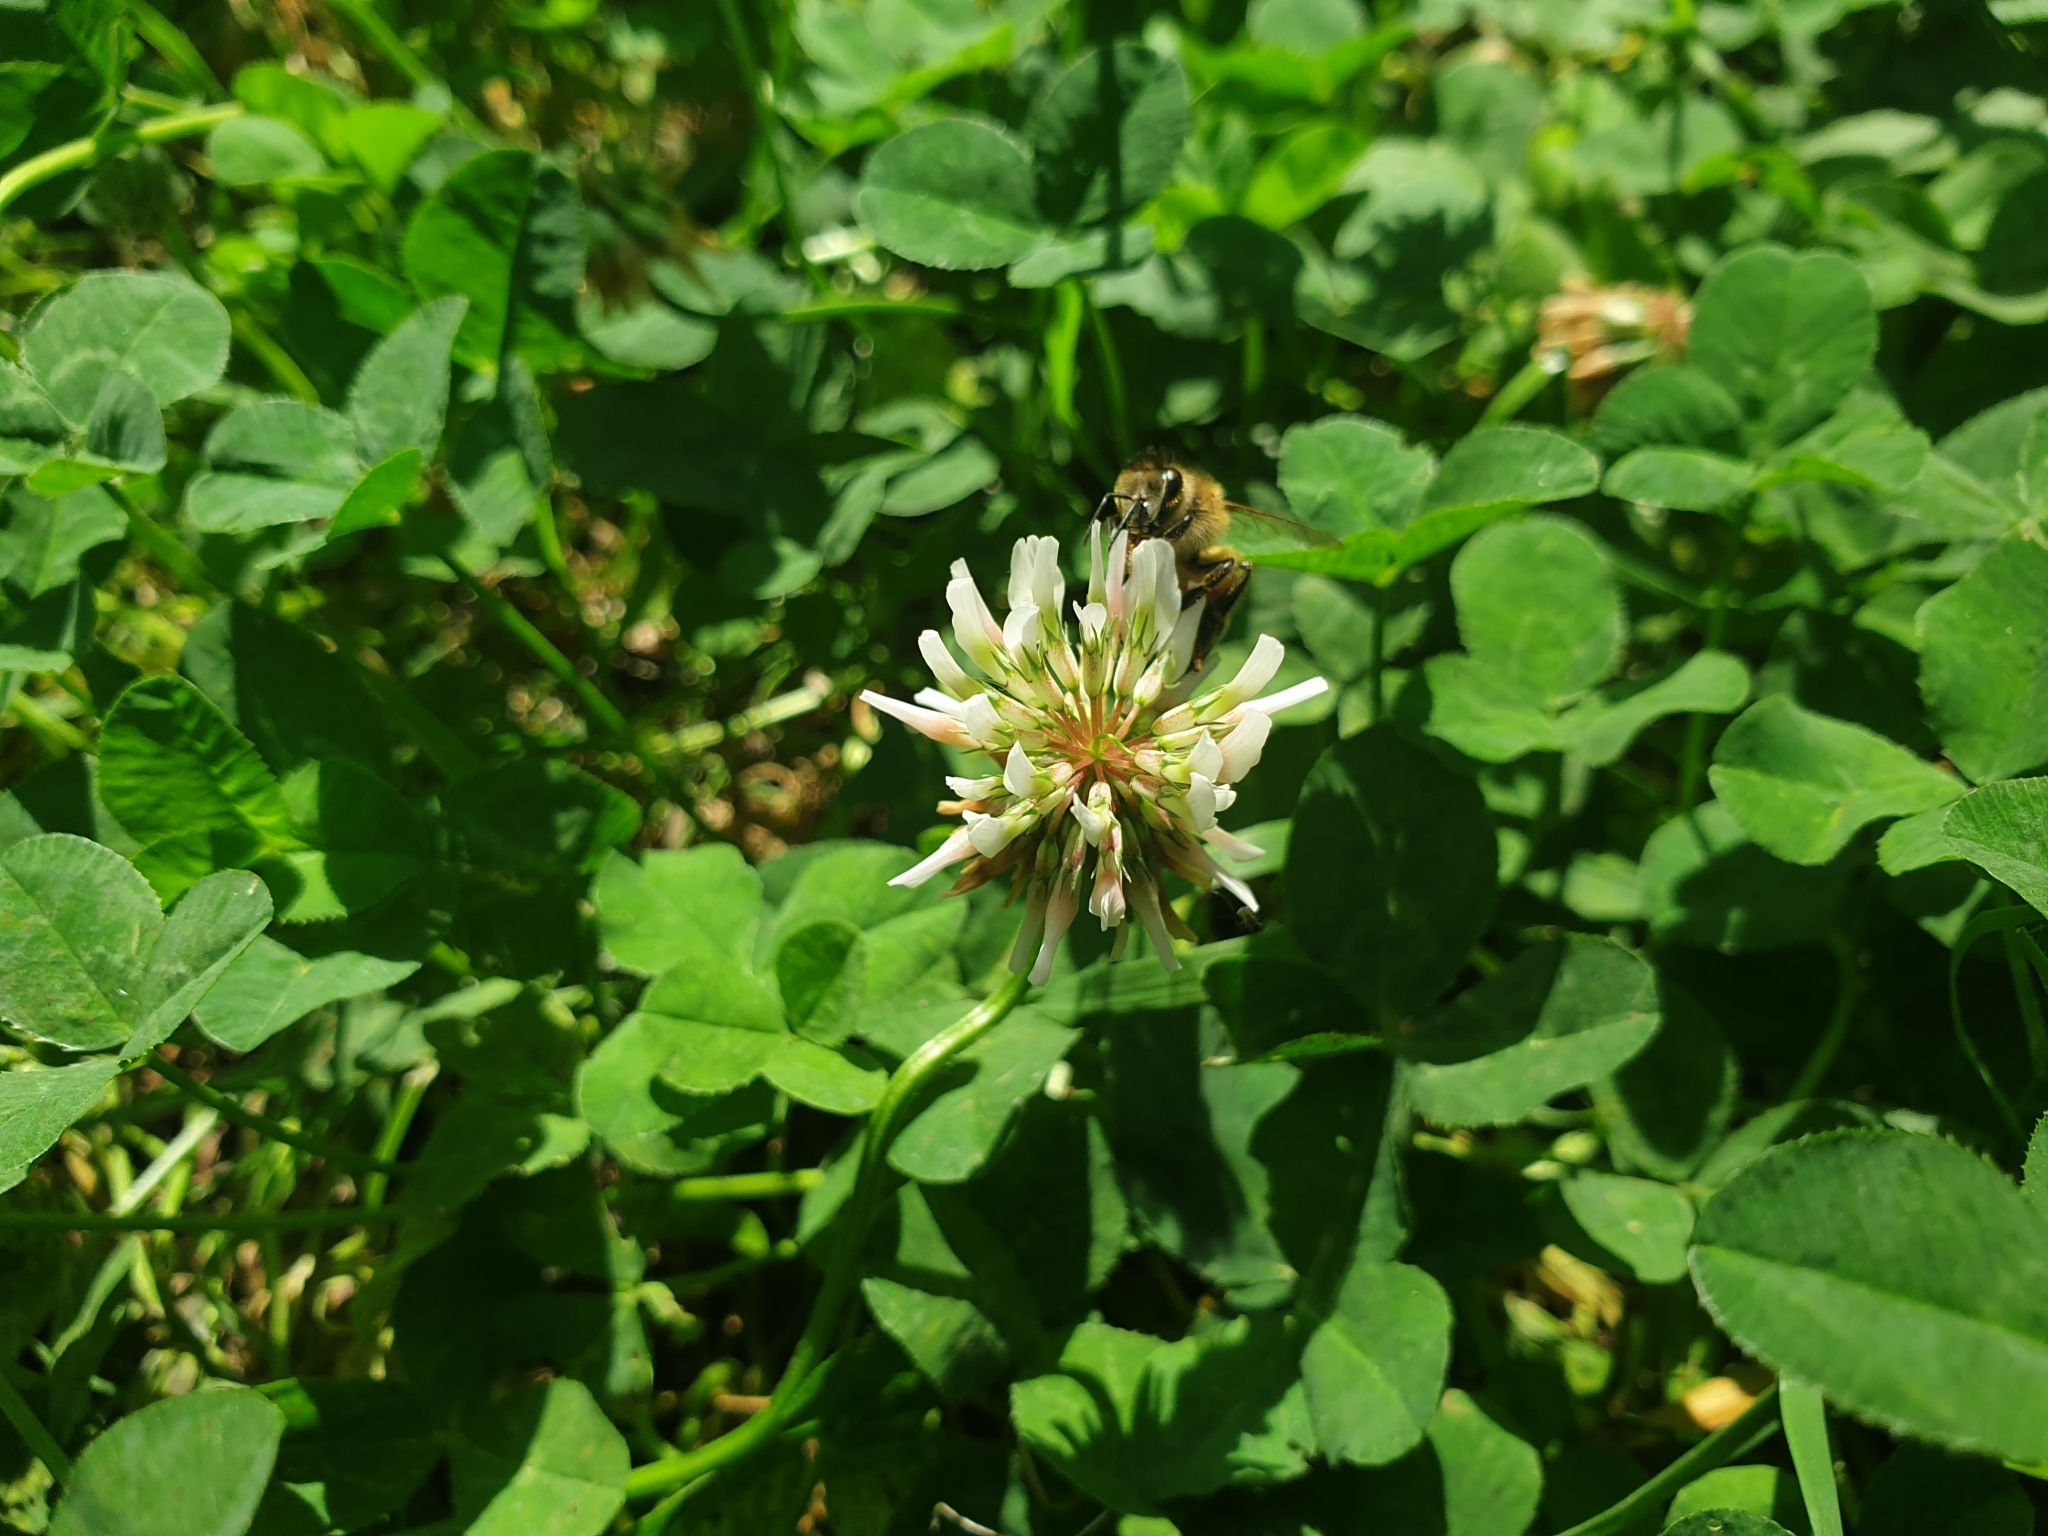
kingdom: Plantae
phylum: Tracheophyta
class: Magnoliopsida
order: Fabales
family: Fabaceae
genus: Trifolium
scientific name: Trifolium repens
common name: White clover
